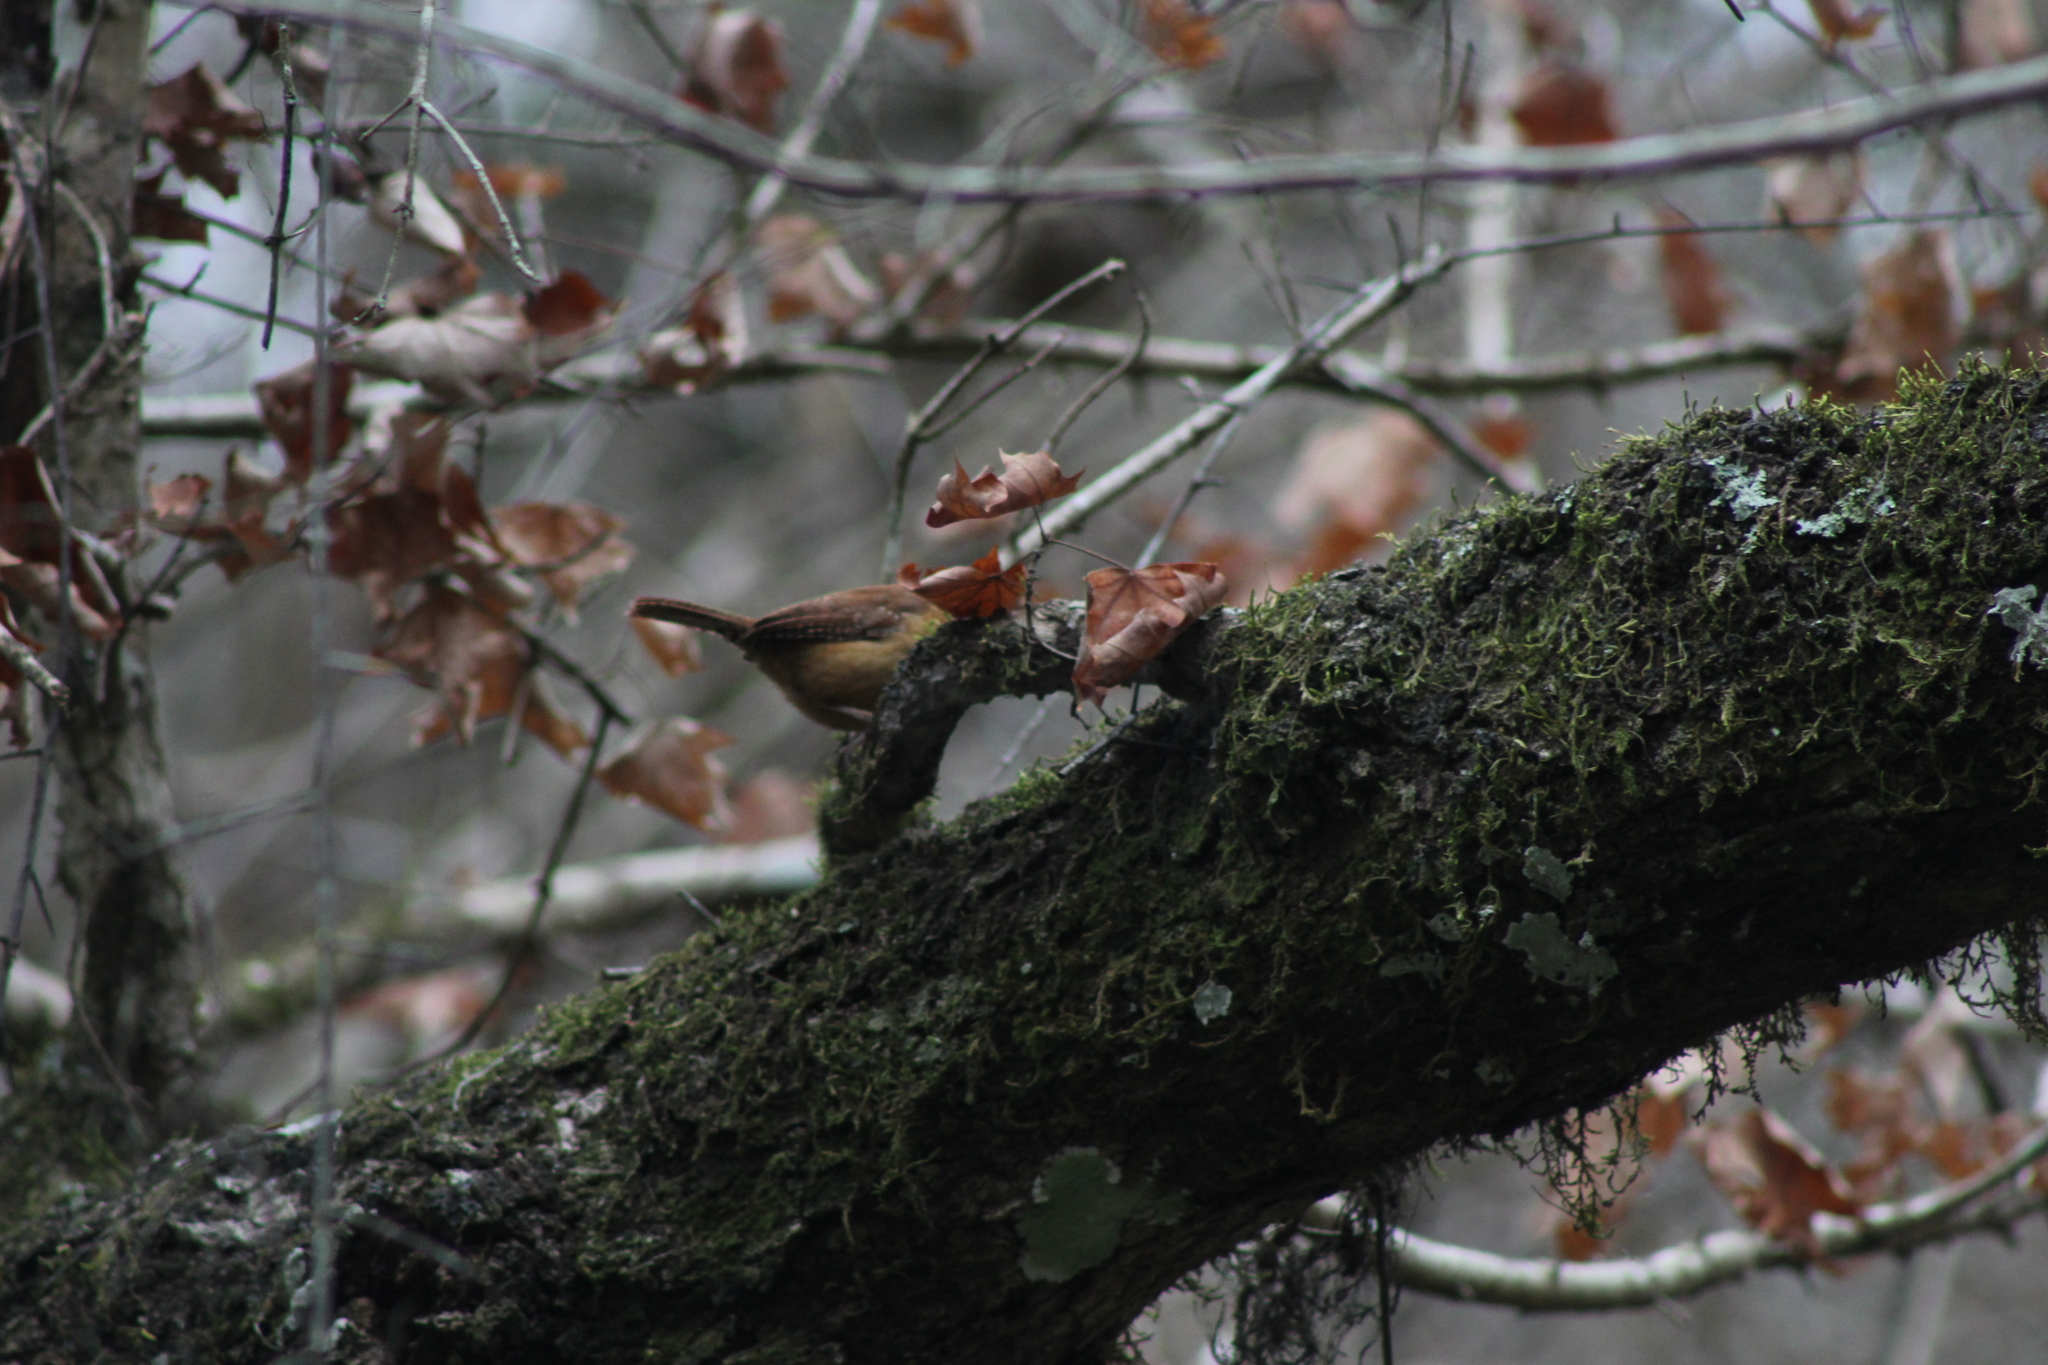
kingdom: Animalia
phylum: Chordata
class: Aves
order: Passeriformes
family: Troglodytidae
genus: Thryothorus
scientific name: Thryothorus ludovicianus
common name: Carolina wren
